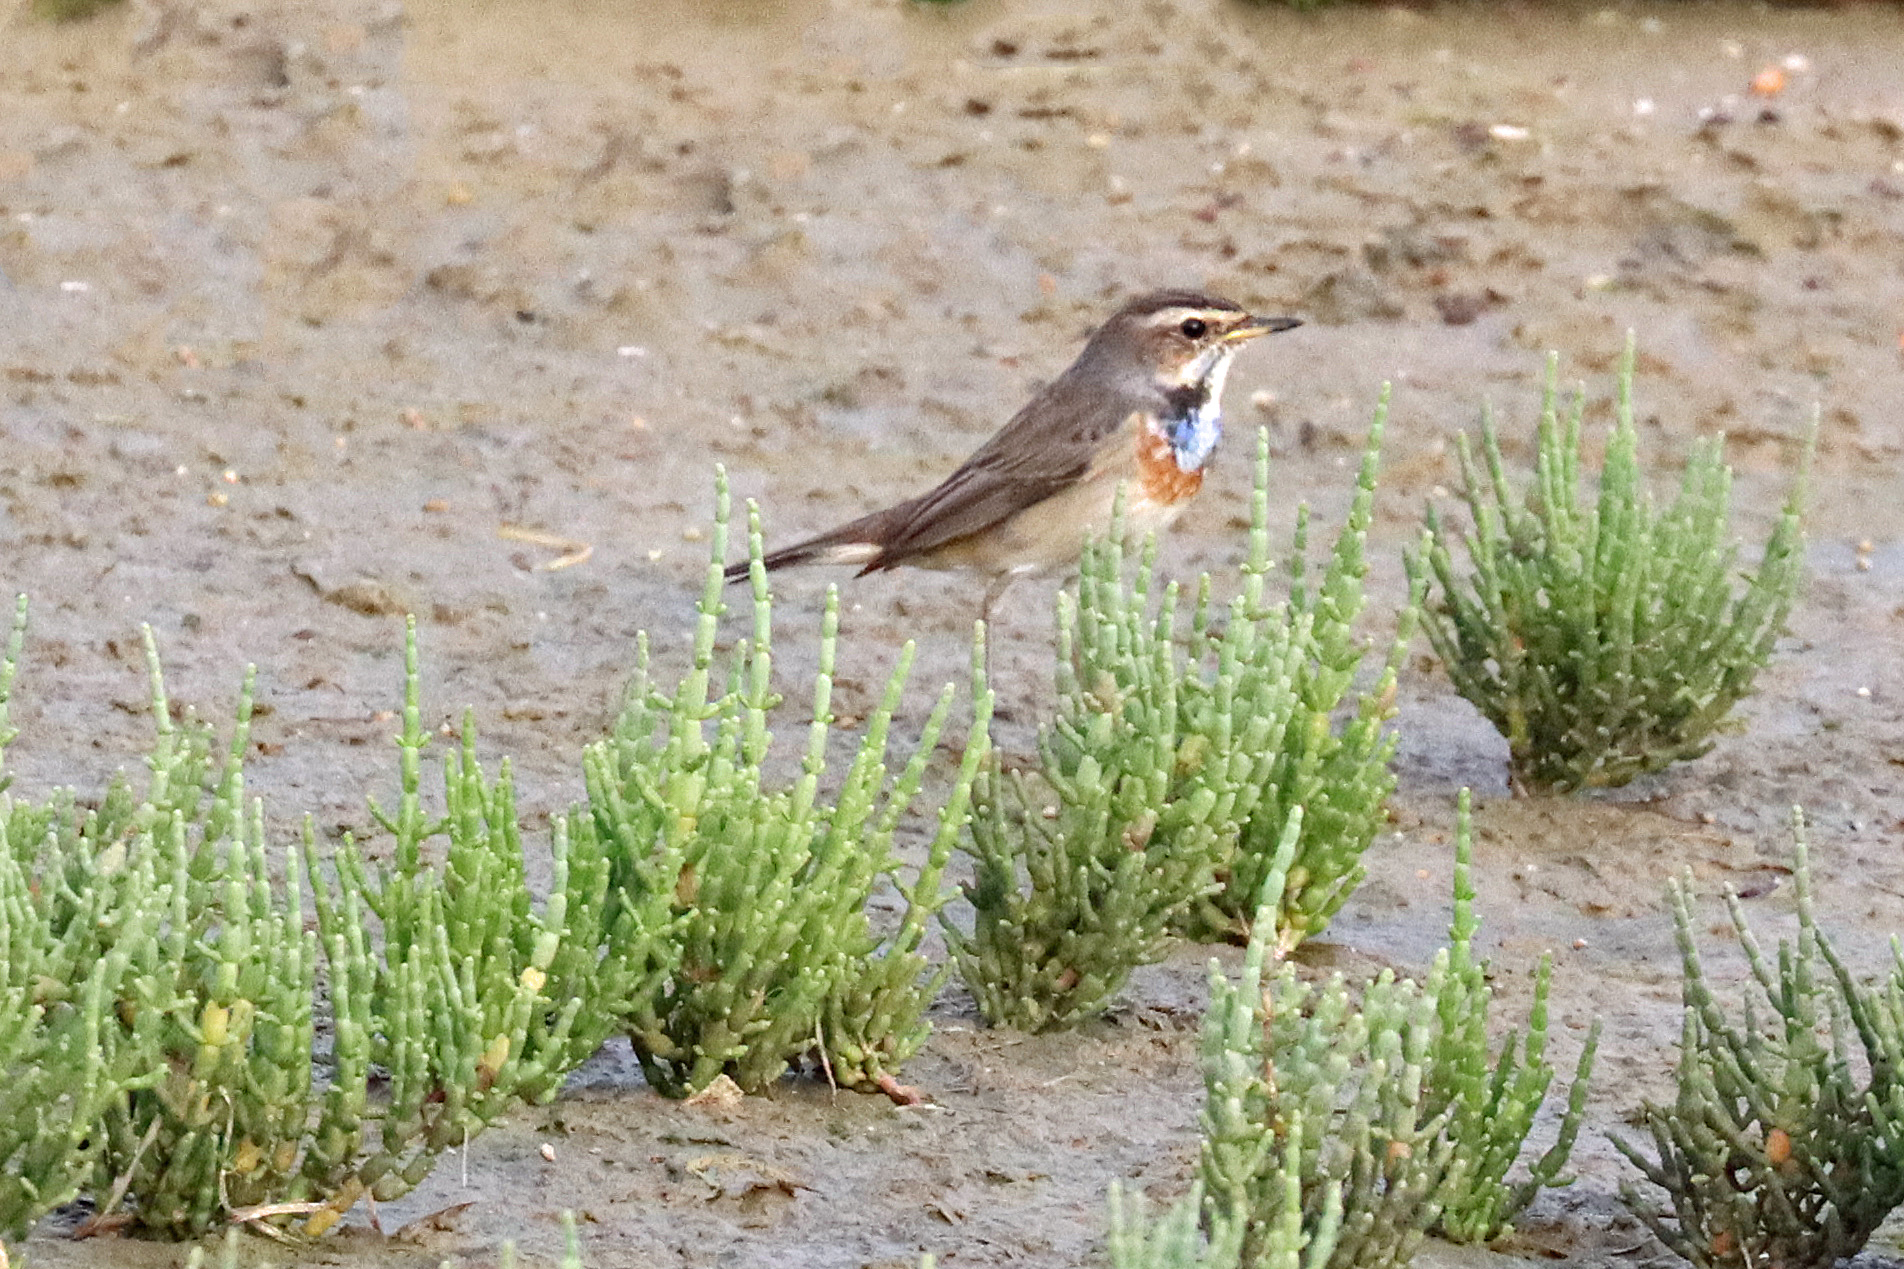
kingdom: Animalia
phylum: Chordata
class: Aves
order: Passeriformes
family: Muscicapidae
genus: Luscinia
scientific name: Luscinia svecica
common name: Bluethroat
